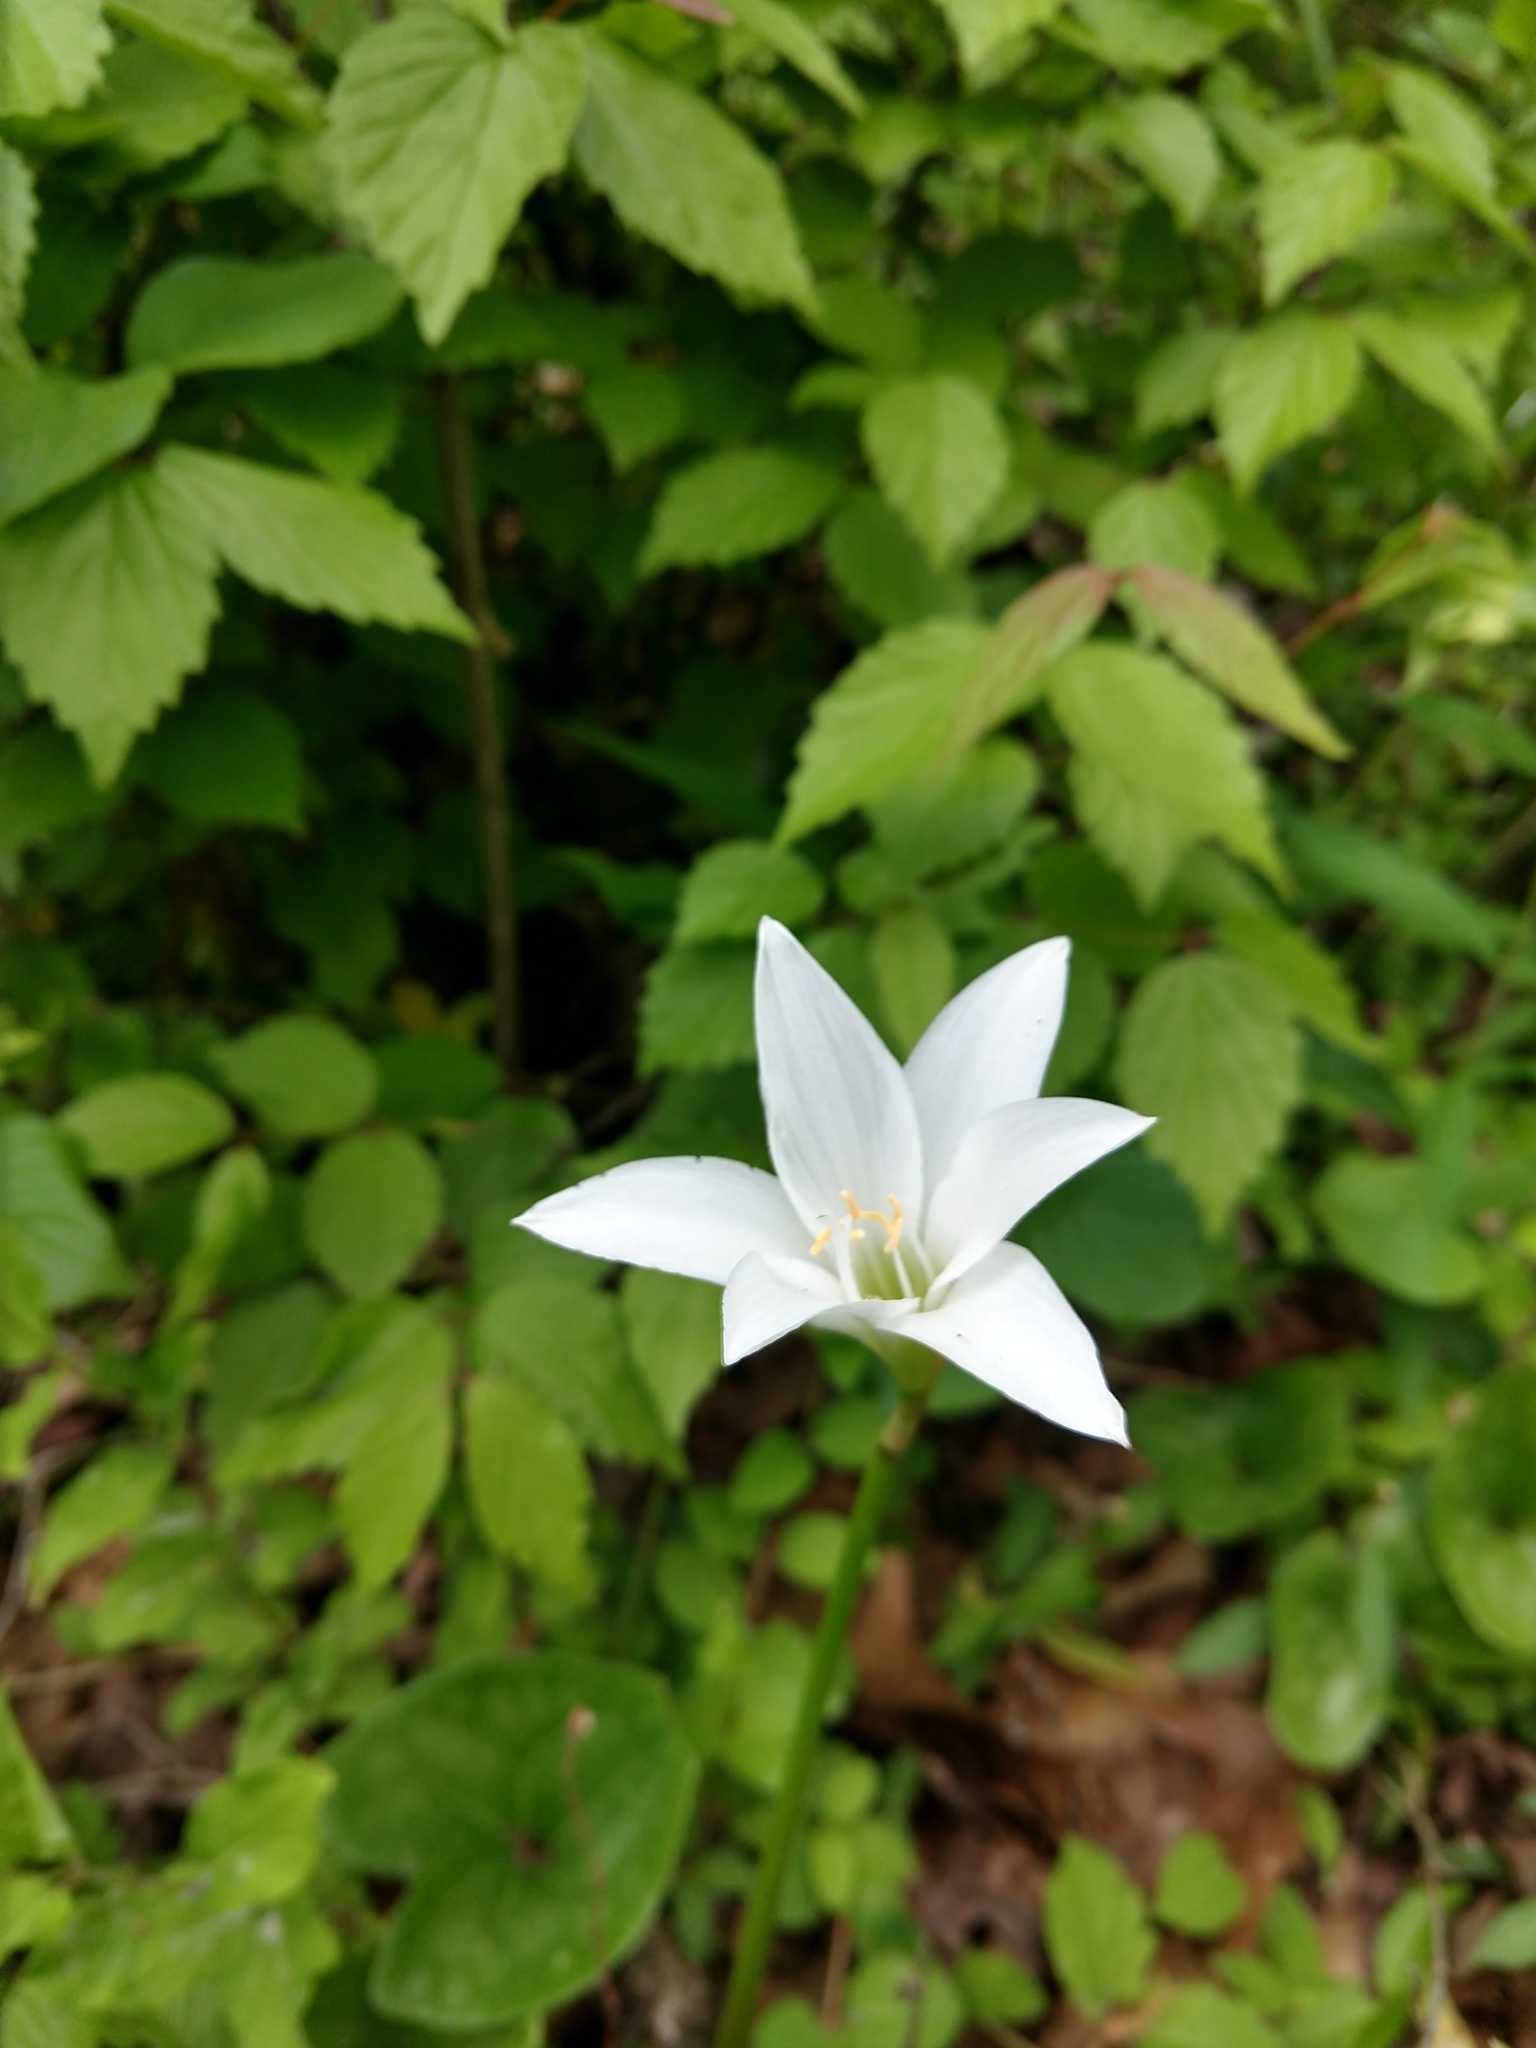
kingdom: Plantae
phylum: Tracheophyta
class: Liliopsida
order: Asparagales
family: Amaryllidaceae
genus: Zephyranthes
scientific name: Zephyranthes atamasco
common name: Atamasco lily
